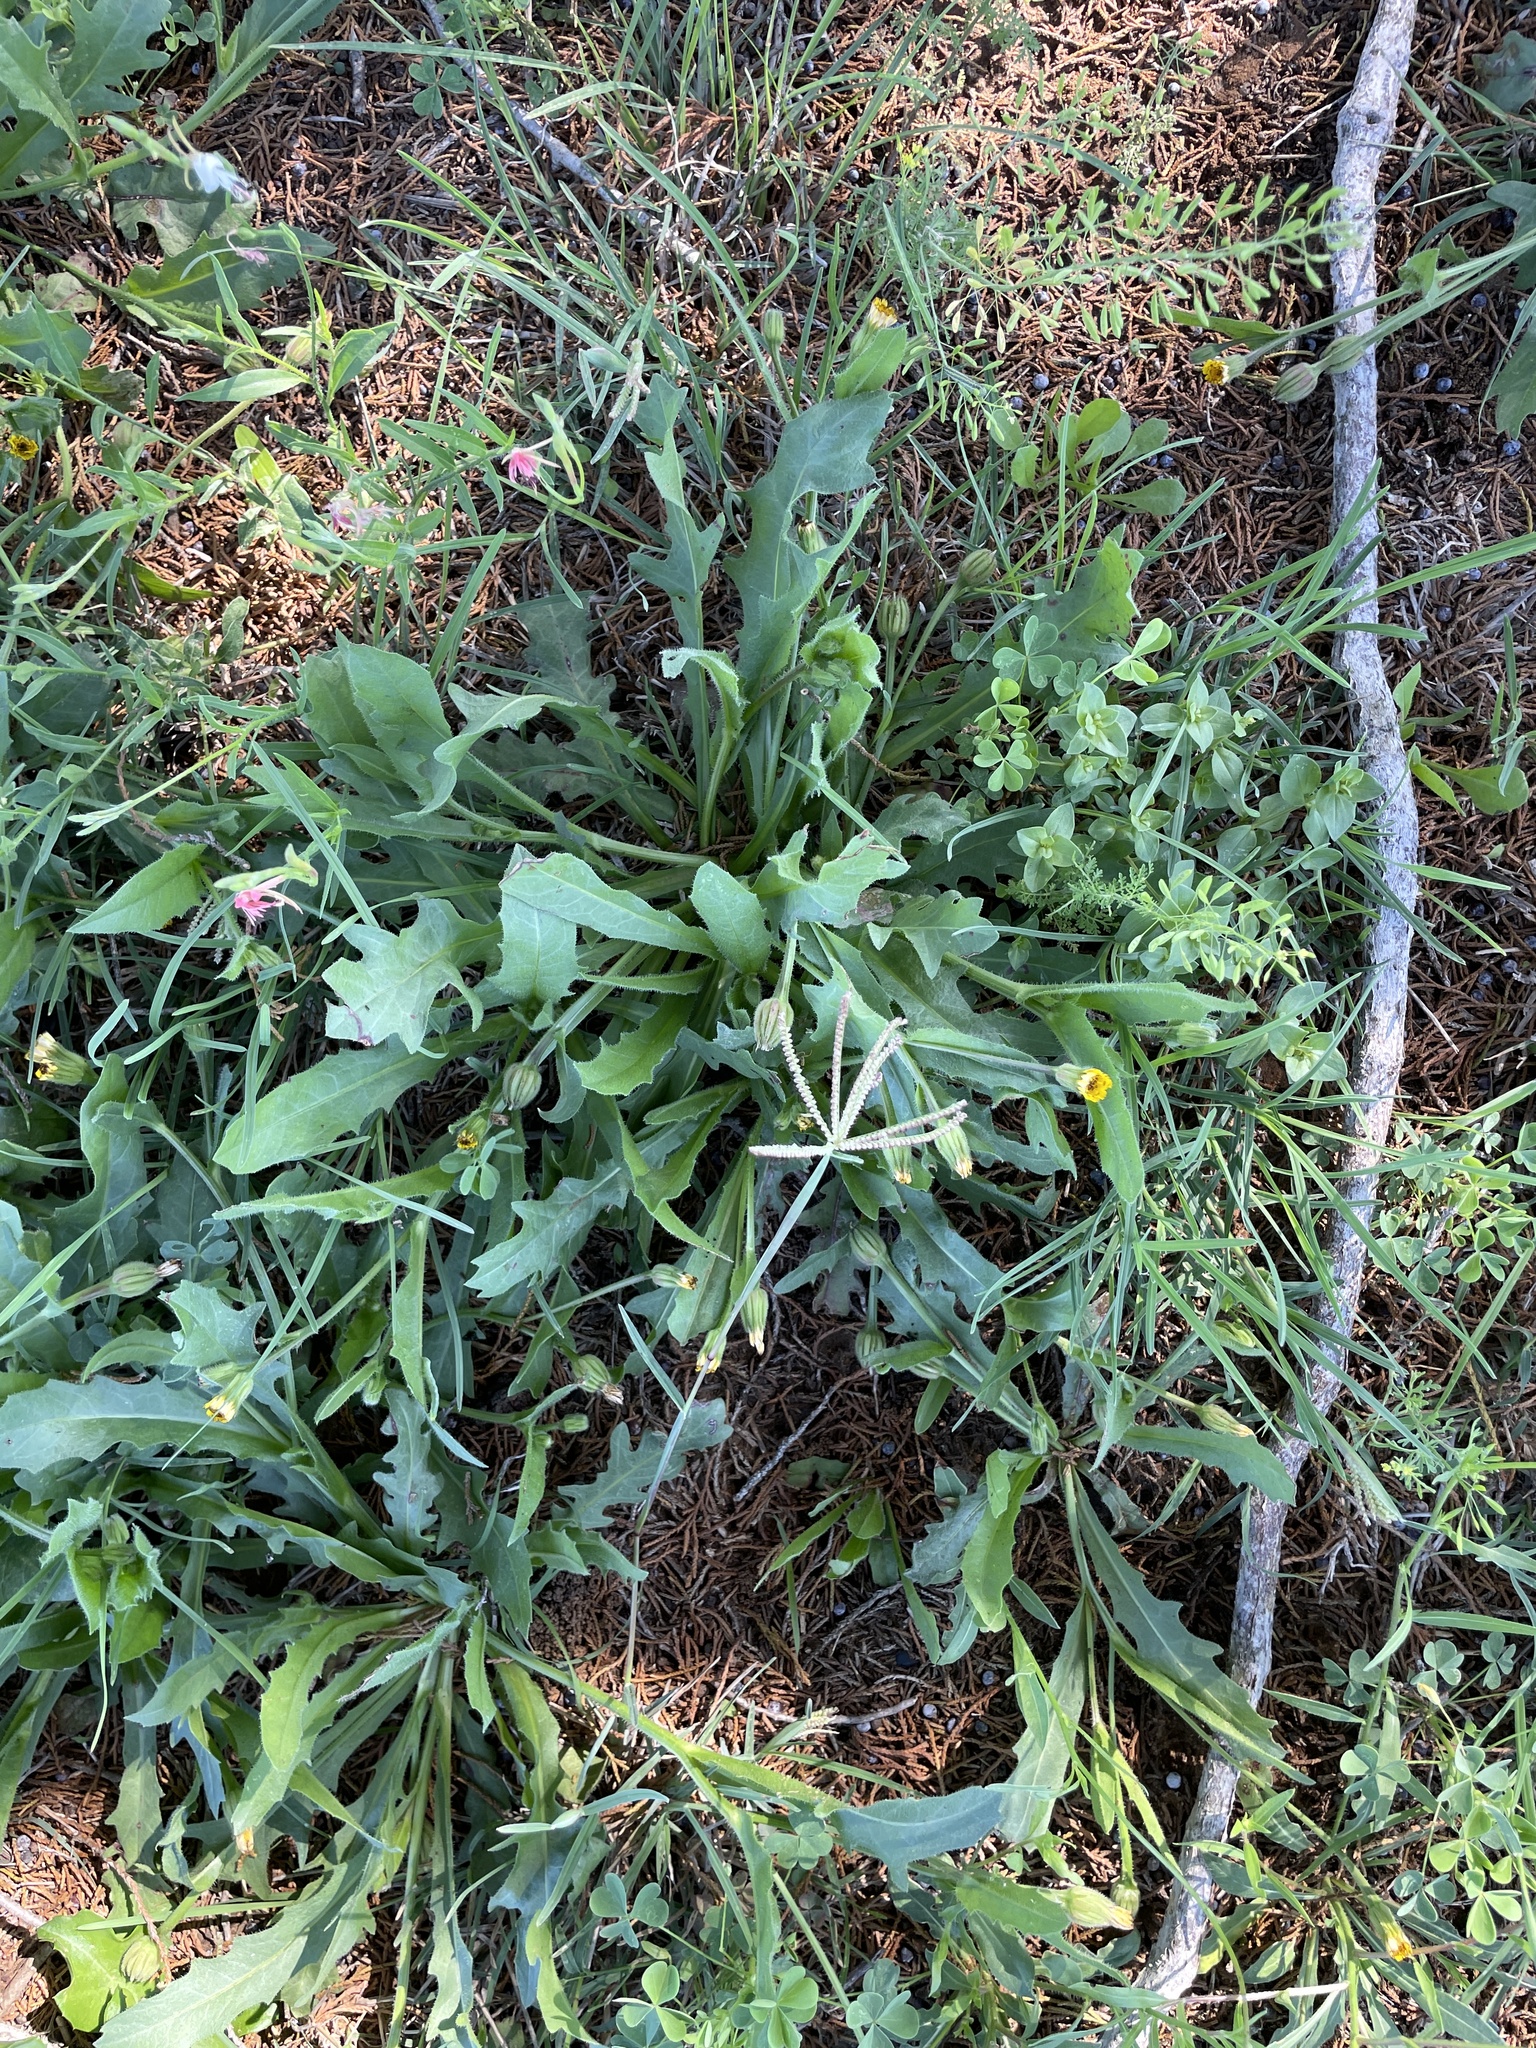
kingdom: Plantae
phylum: Tracheophyta
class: Magnoliopsida
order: Asterales
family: Asteraceae
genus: Hedypnois
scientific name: Hedypnois rhagadioloides
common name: Cretan weed
